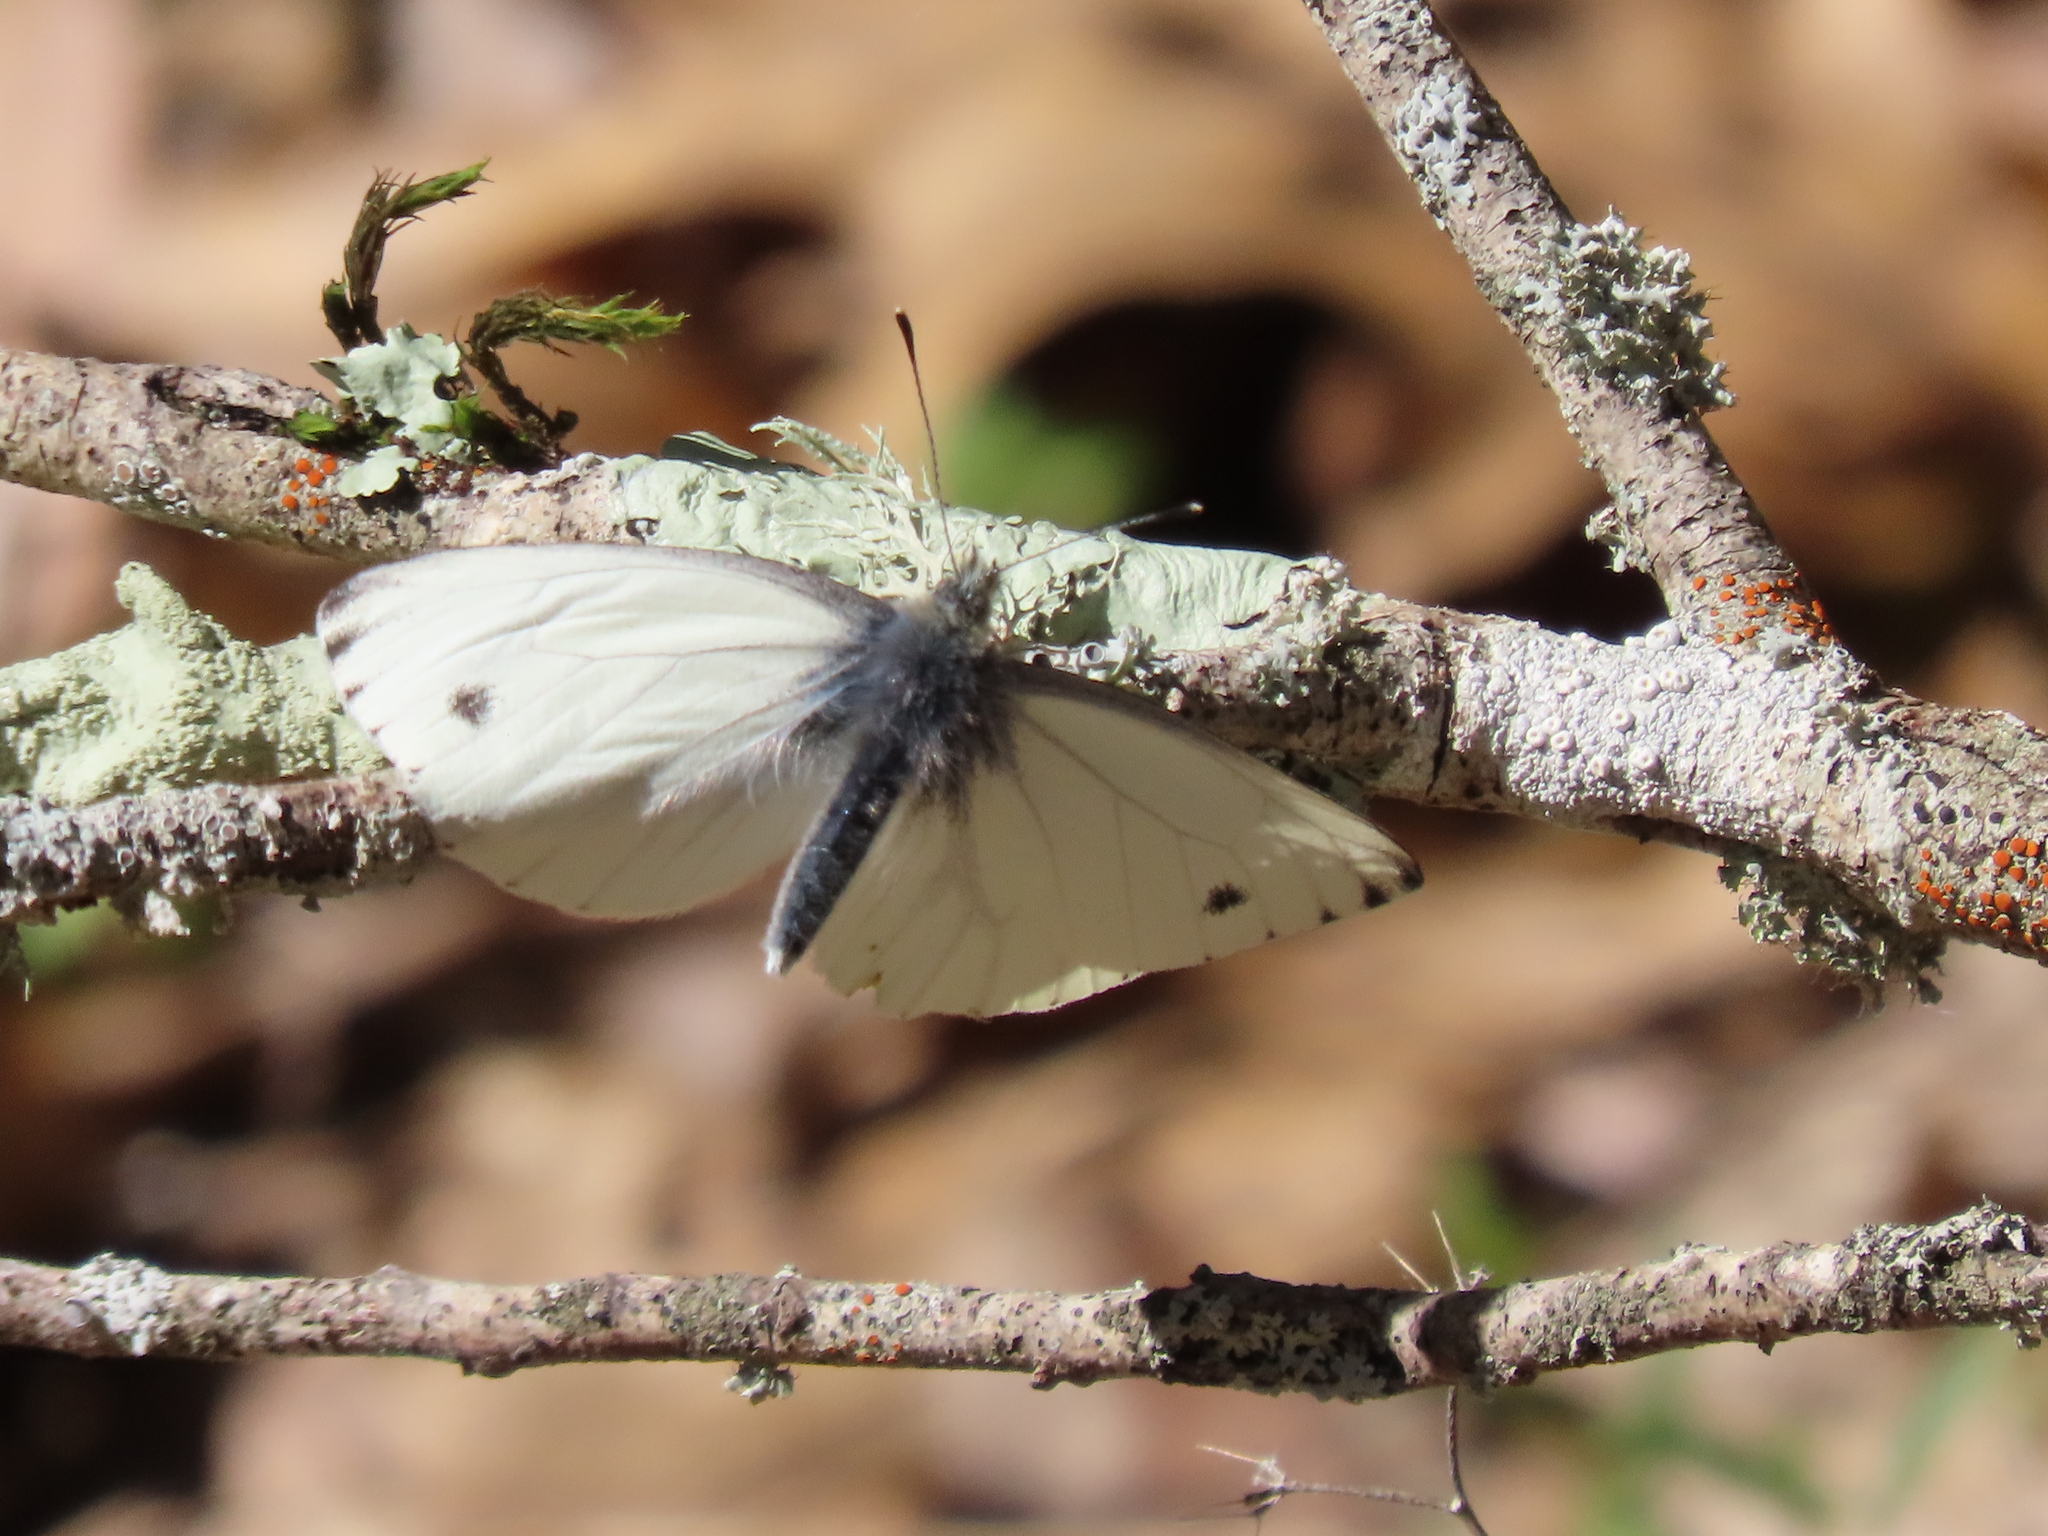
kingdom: Animalia
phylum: Arthropoda
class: Insecta
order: Lepidoptera
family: Pieridae
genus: Pieris
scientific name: Pieris marginalis
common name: Margined white
